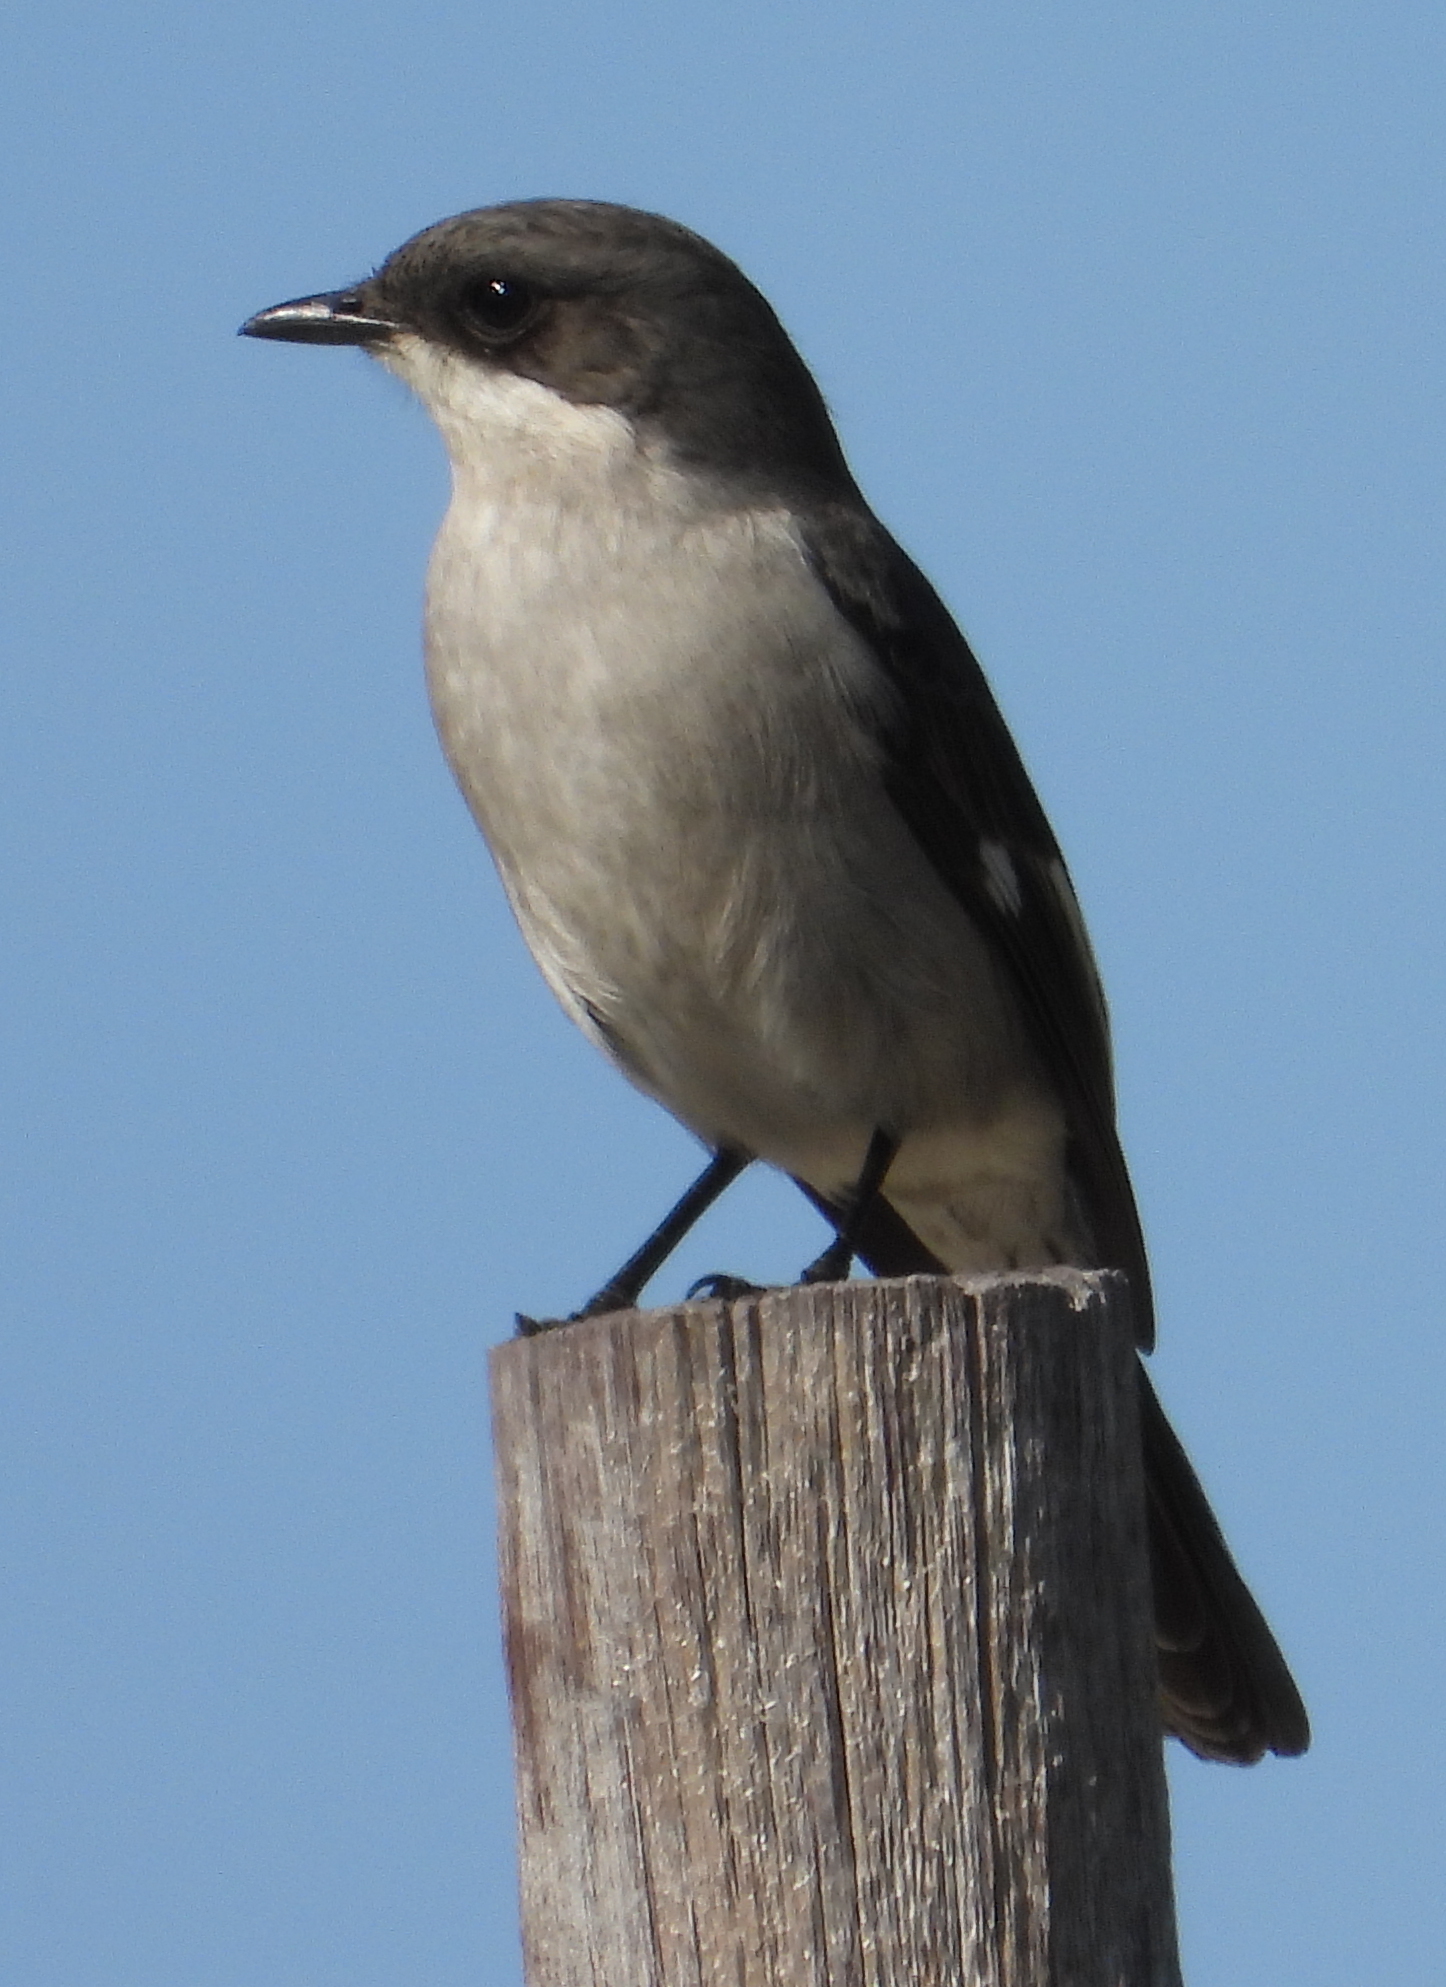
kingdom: Animalia
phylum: Chordata
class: Aves
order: Passeriformes
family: Muscicapidae
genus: Sigelus
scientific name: Sigelus silens
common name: Fiscal flycatcher
